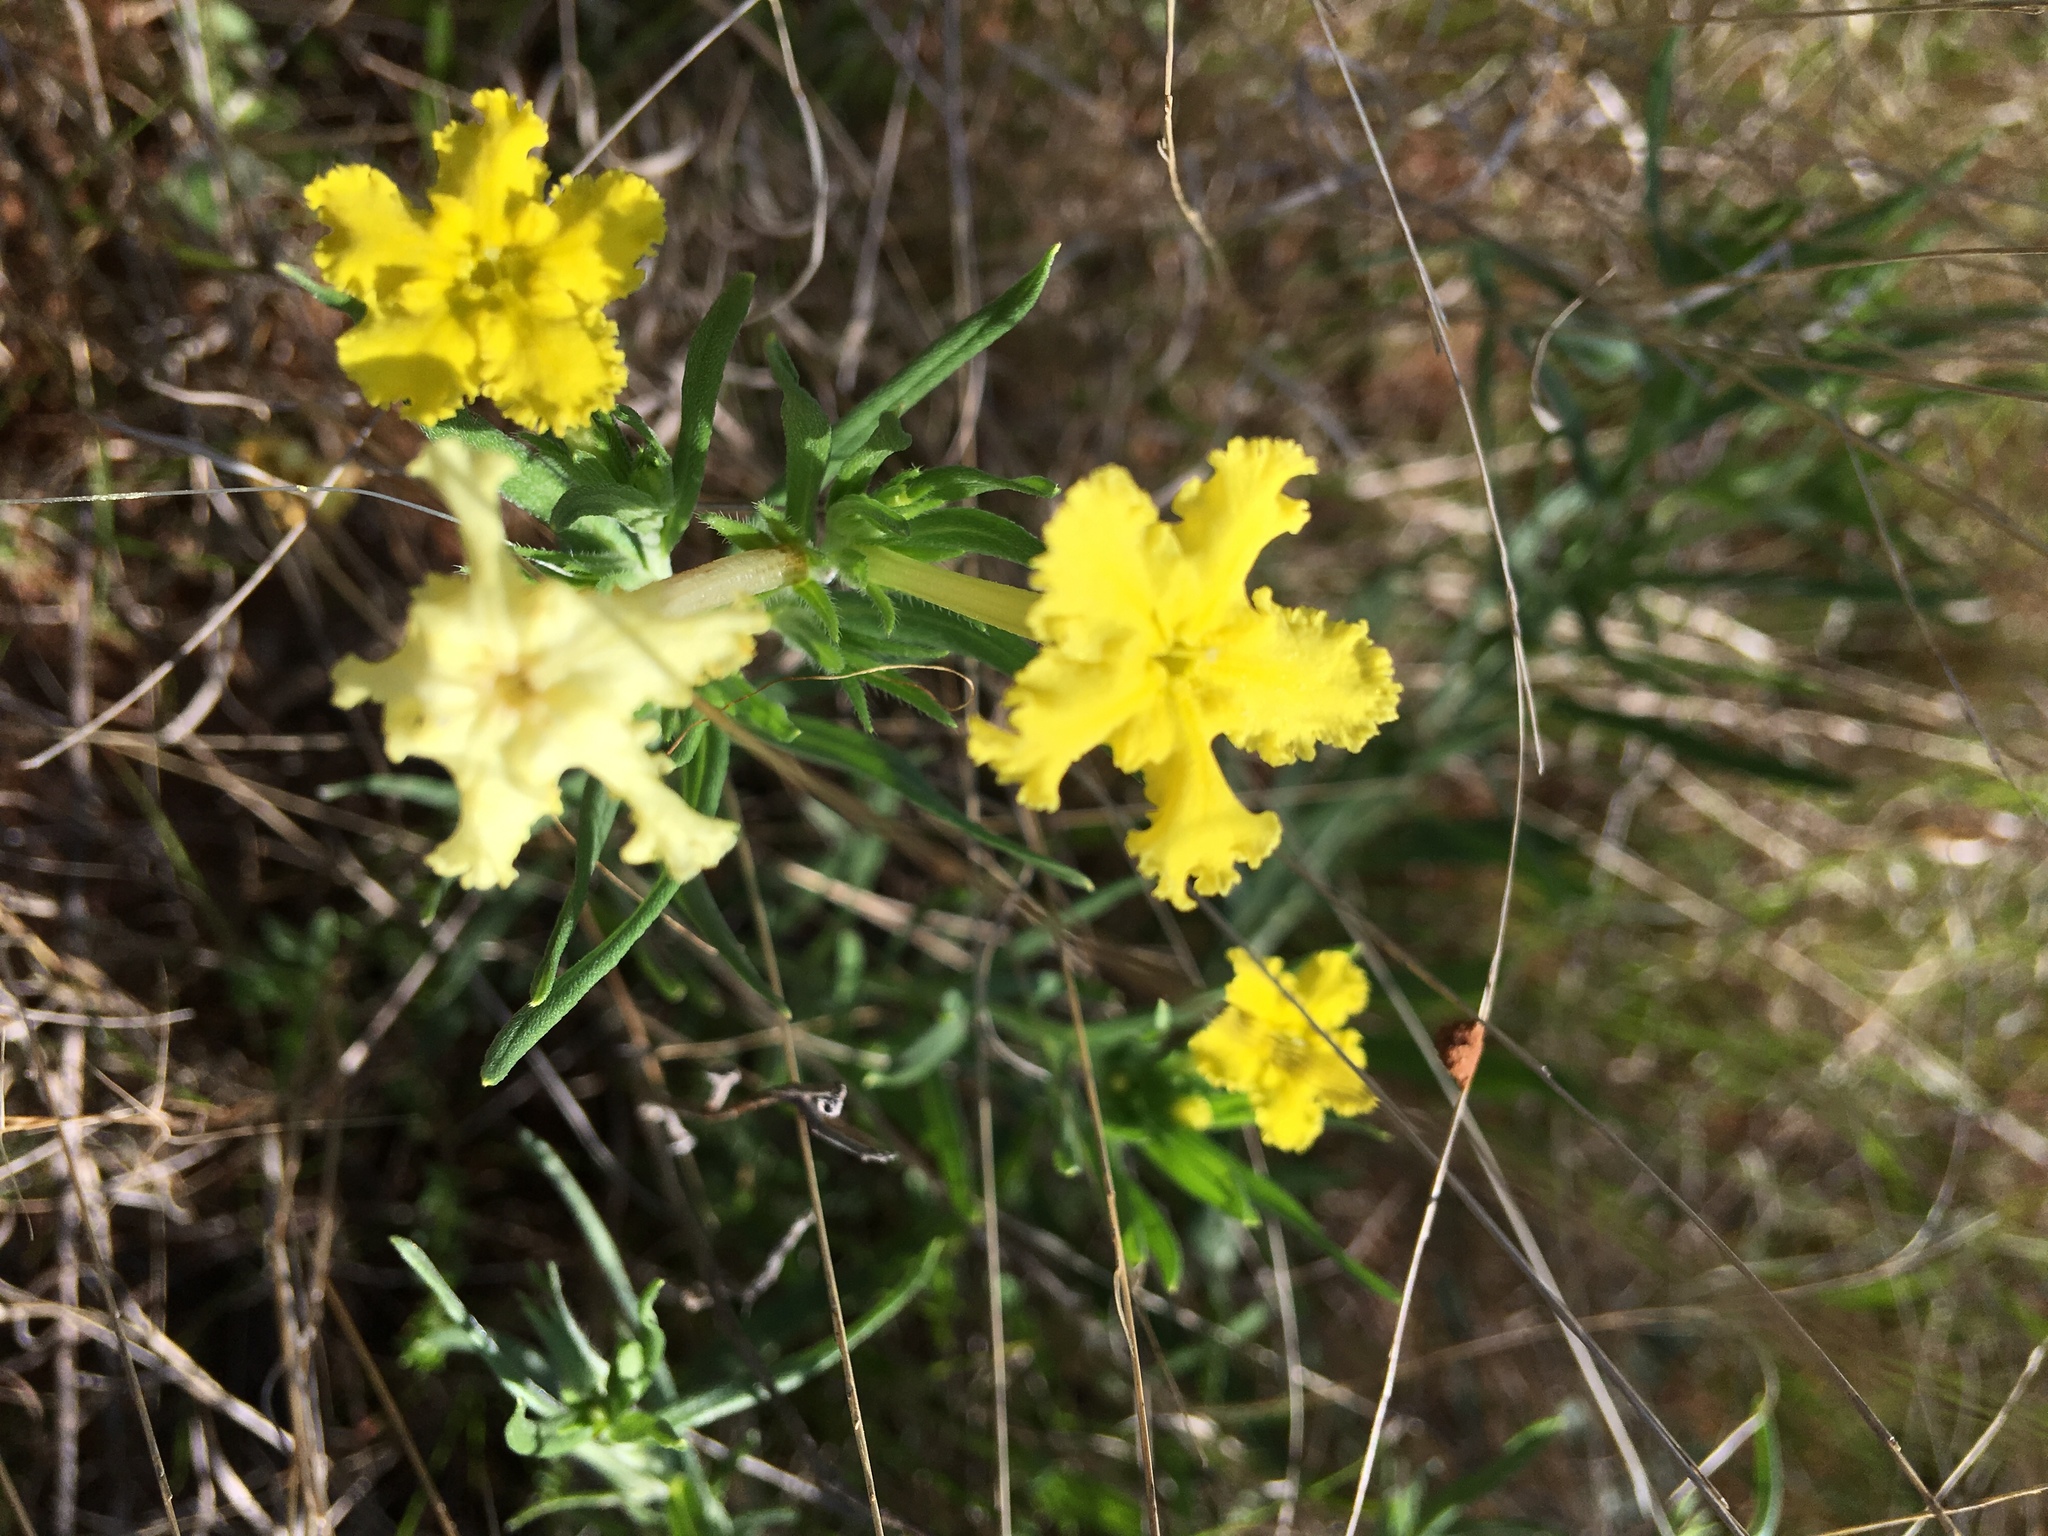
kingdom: Plantae
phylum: Tracheophyta
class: Magnoliopsida
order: Boraginales
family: Boraginaceae
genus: Lithospermum
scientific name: Lithospermum incisum
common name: Fringed gromwell
